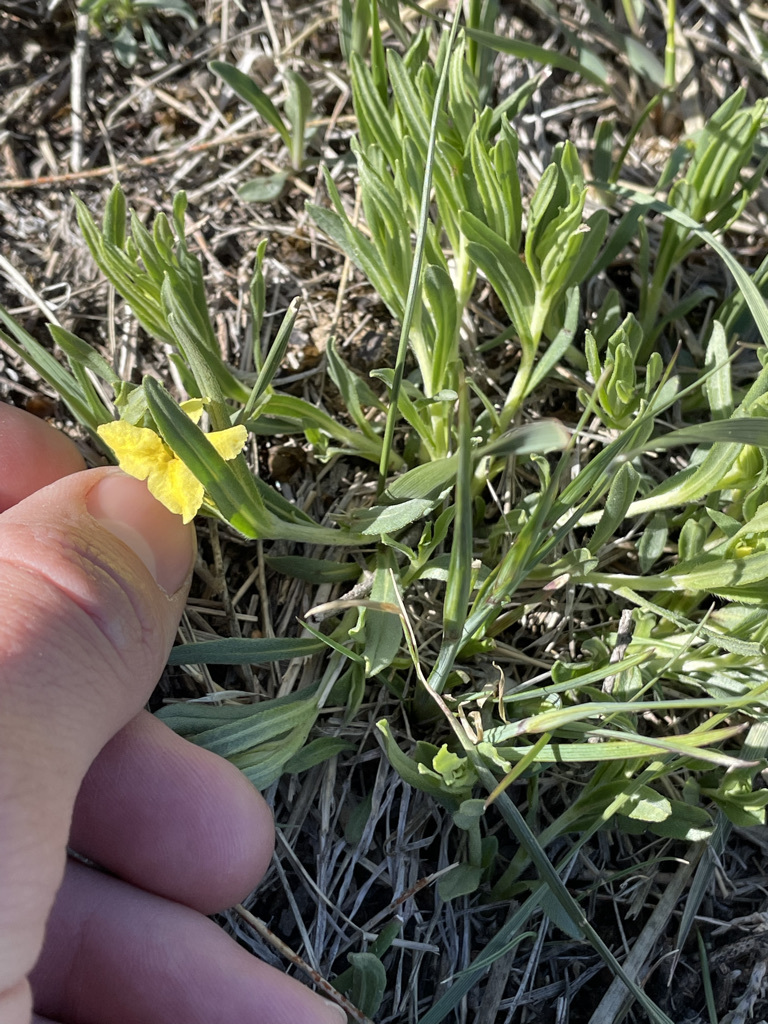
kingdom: Plantae
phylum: Tracheophyta
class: Magnoliopsida
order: Boraginales
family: Boraginaceae
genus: Lithospermum
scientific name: Lithospermum incisum
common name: Fringed gromwell
